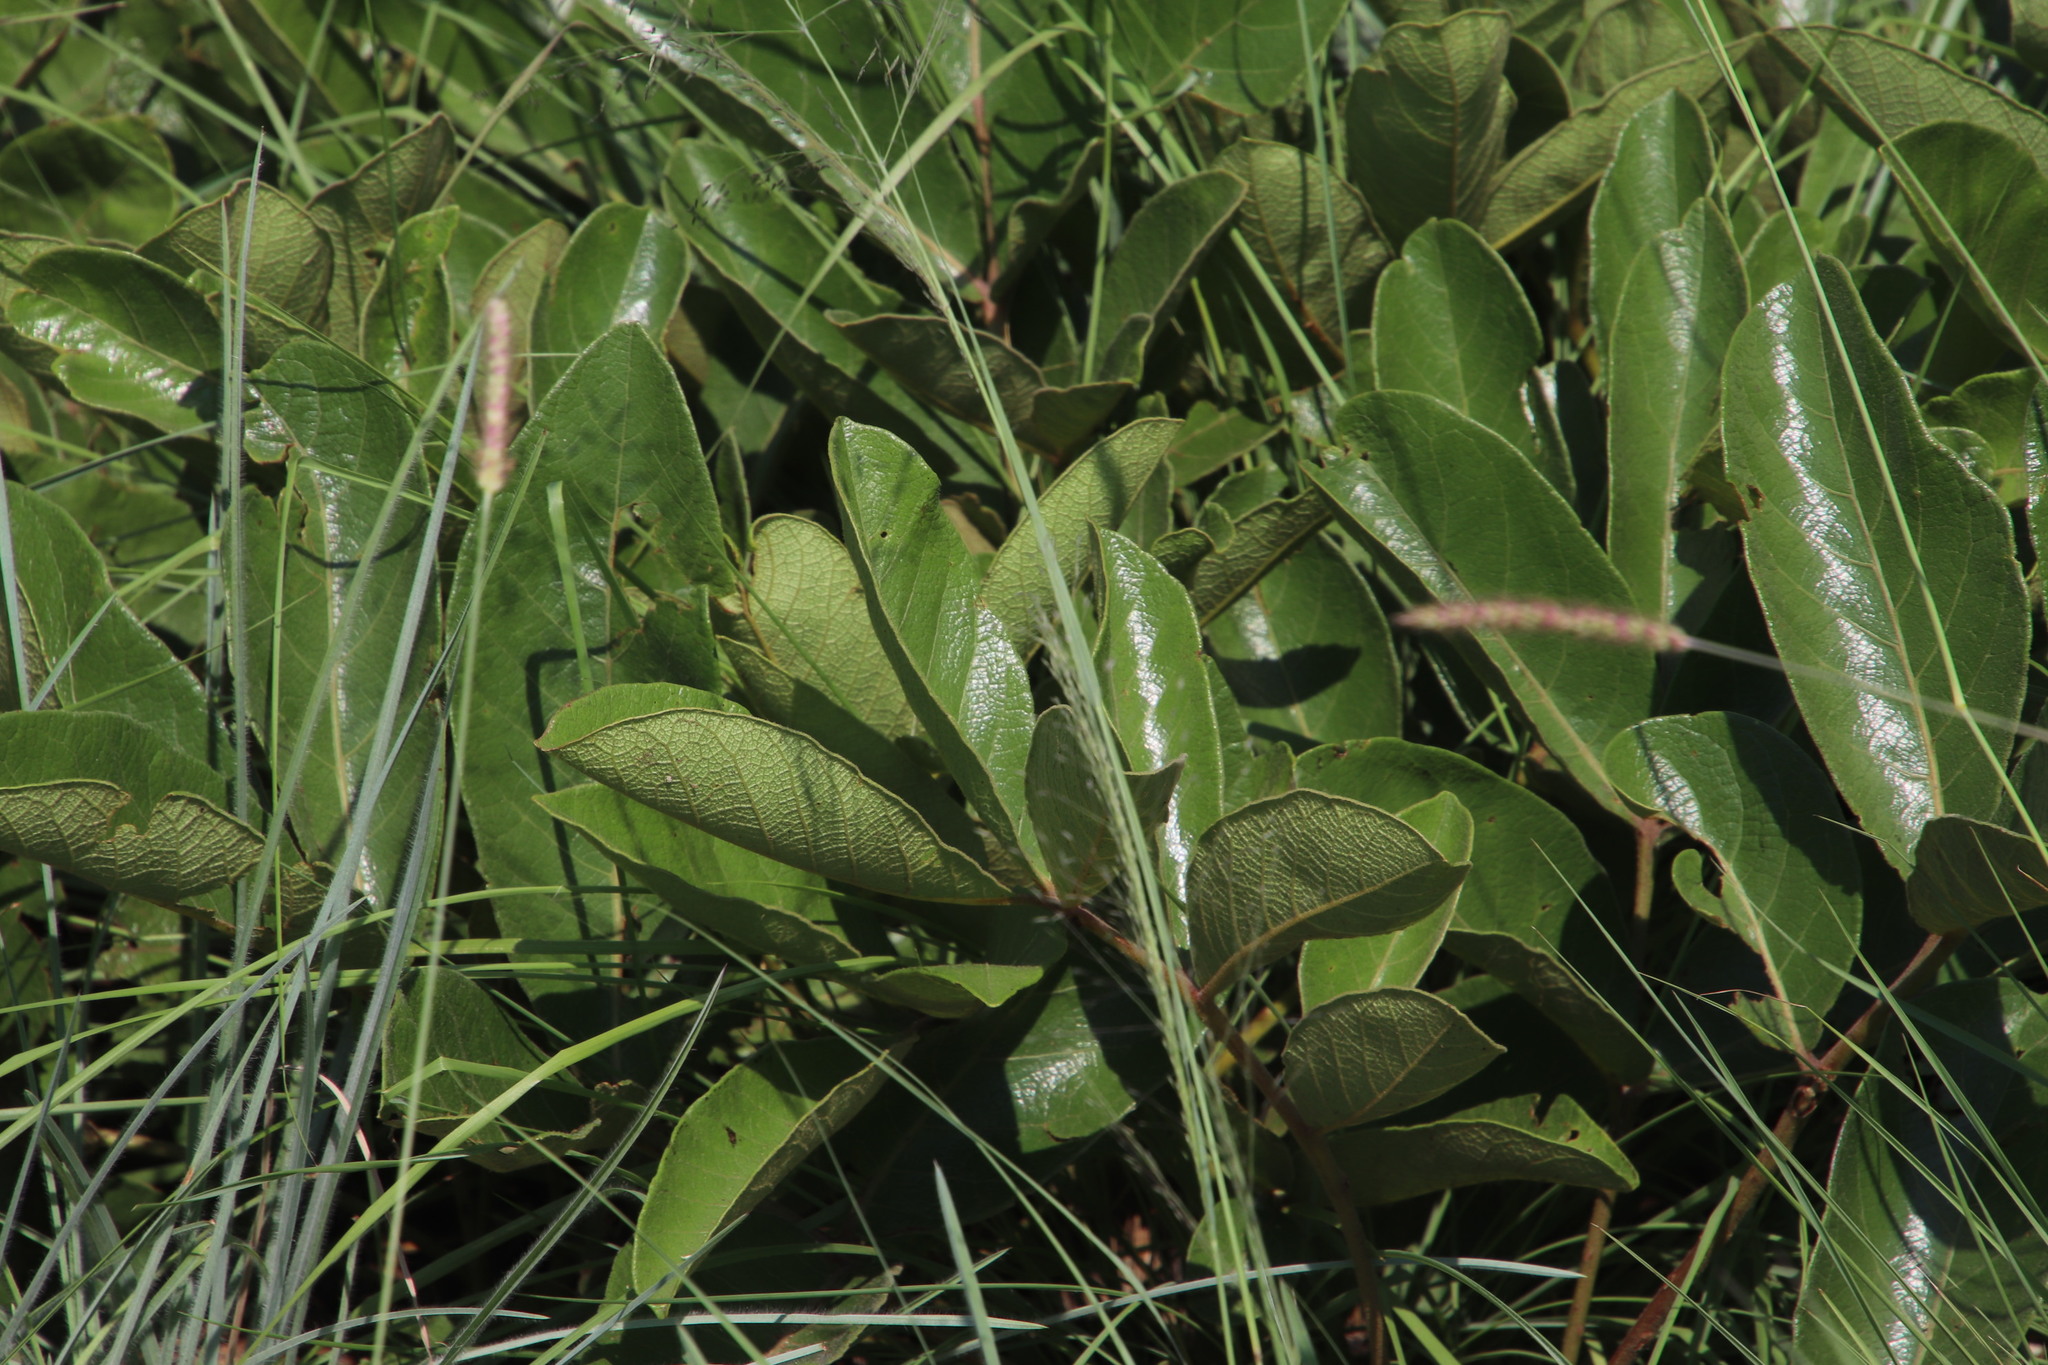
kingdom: Plantae
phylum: Tracheophyta
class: Magnoliopsida
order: Malpighiales
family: Chrysobalanaceae
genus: Parinari
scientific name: Parinari capensis
